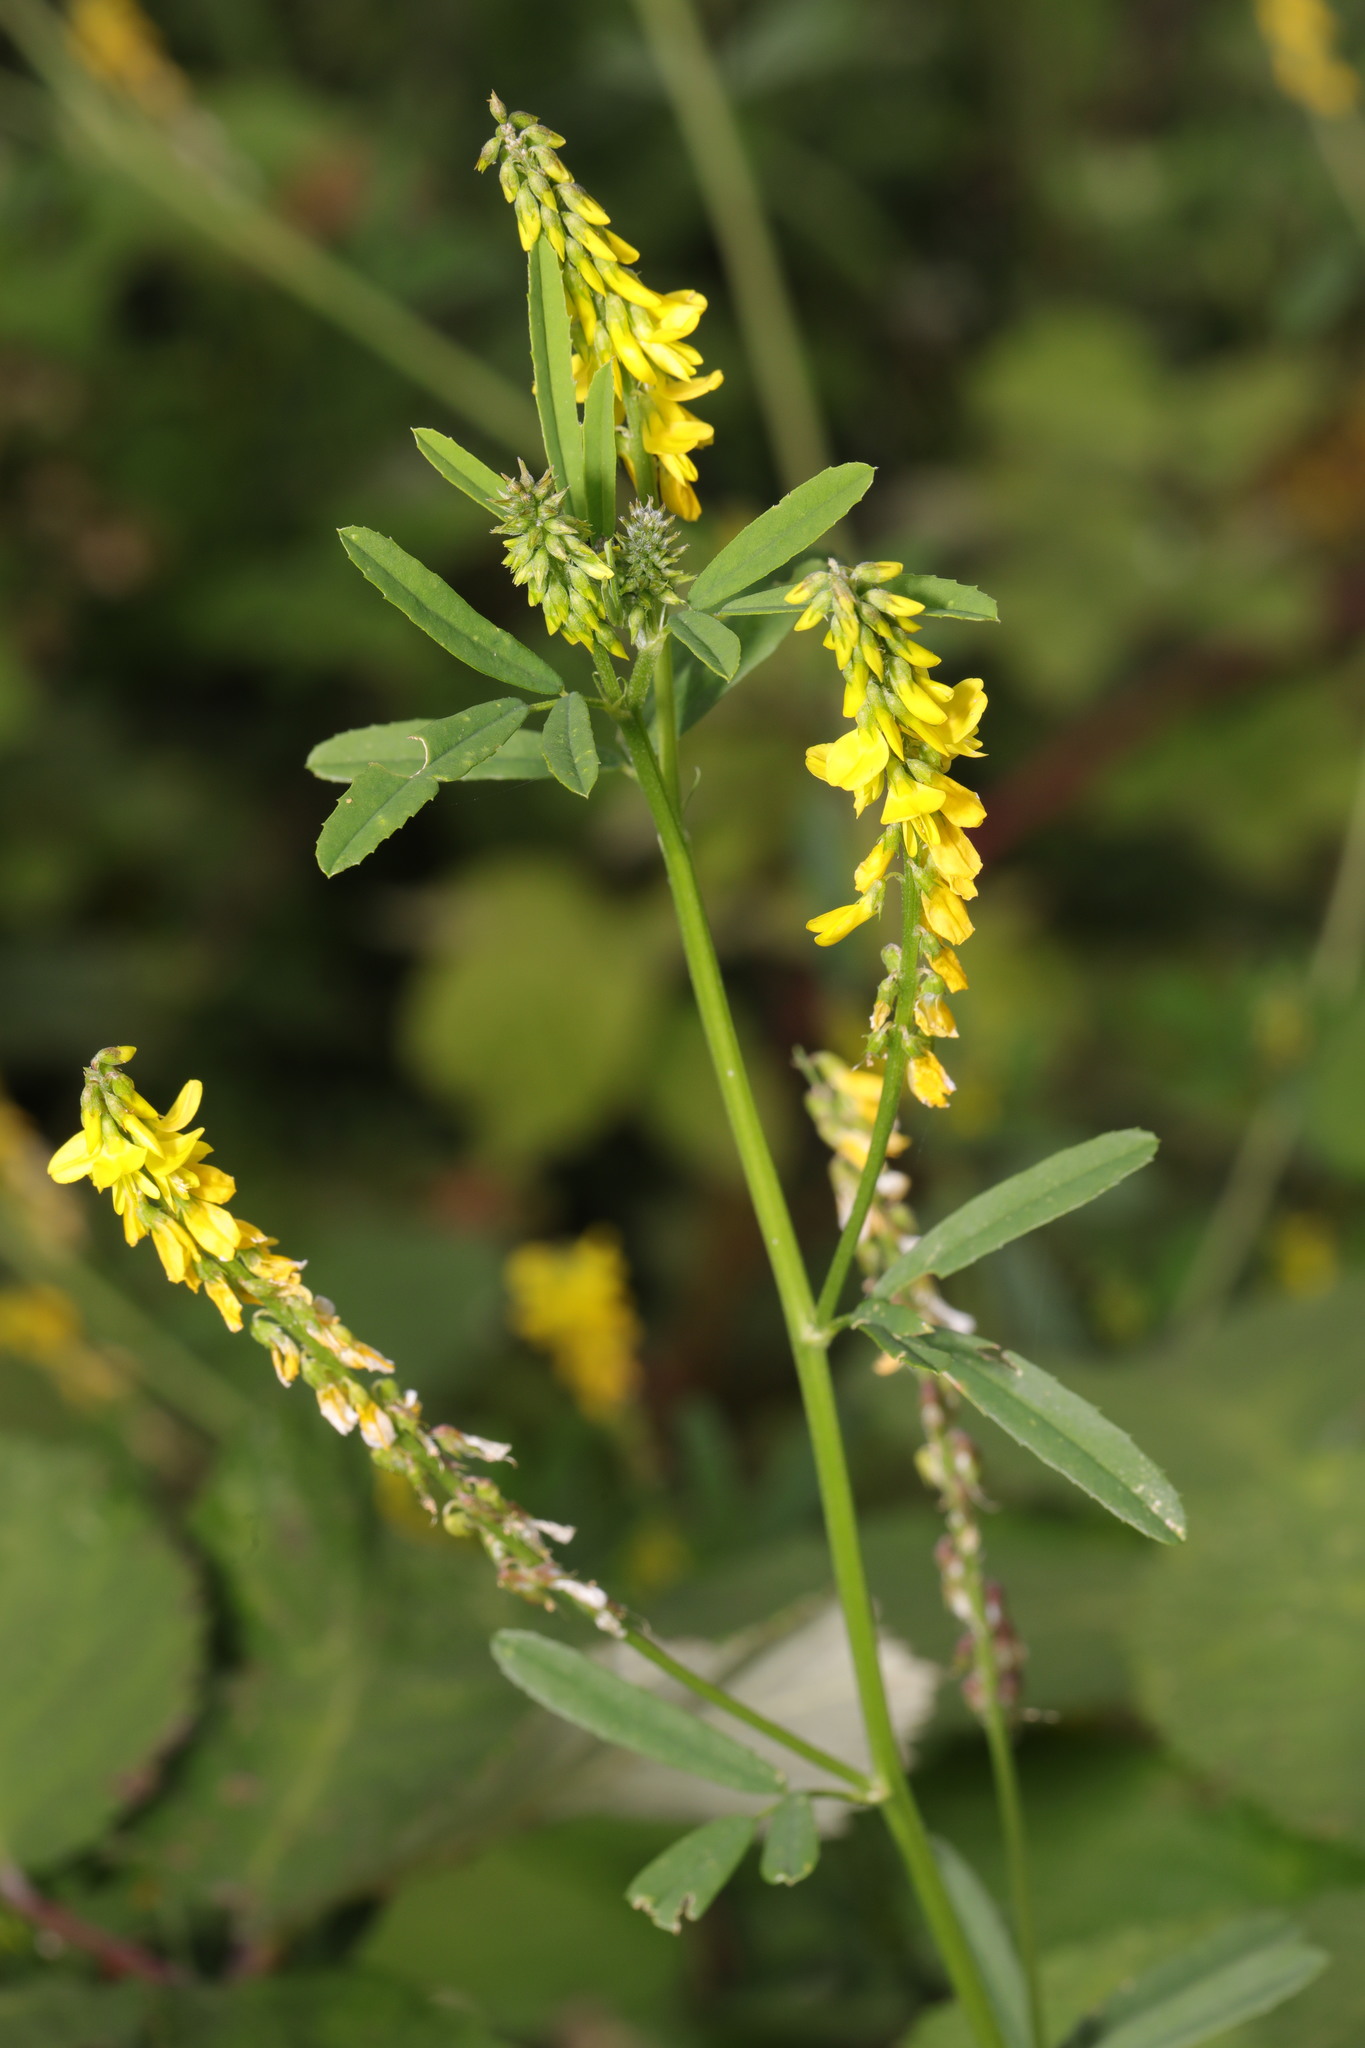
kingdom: Plantae
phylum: Tracheophyta
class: Magnoliopsida
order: Fabales
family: Fabaceae
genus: Melilotus
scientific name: Melilotus officinalis
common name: Sweetclover
